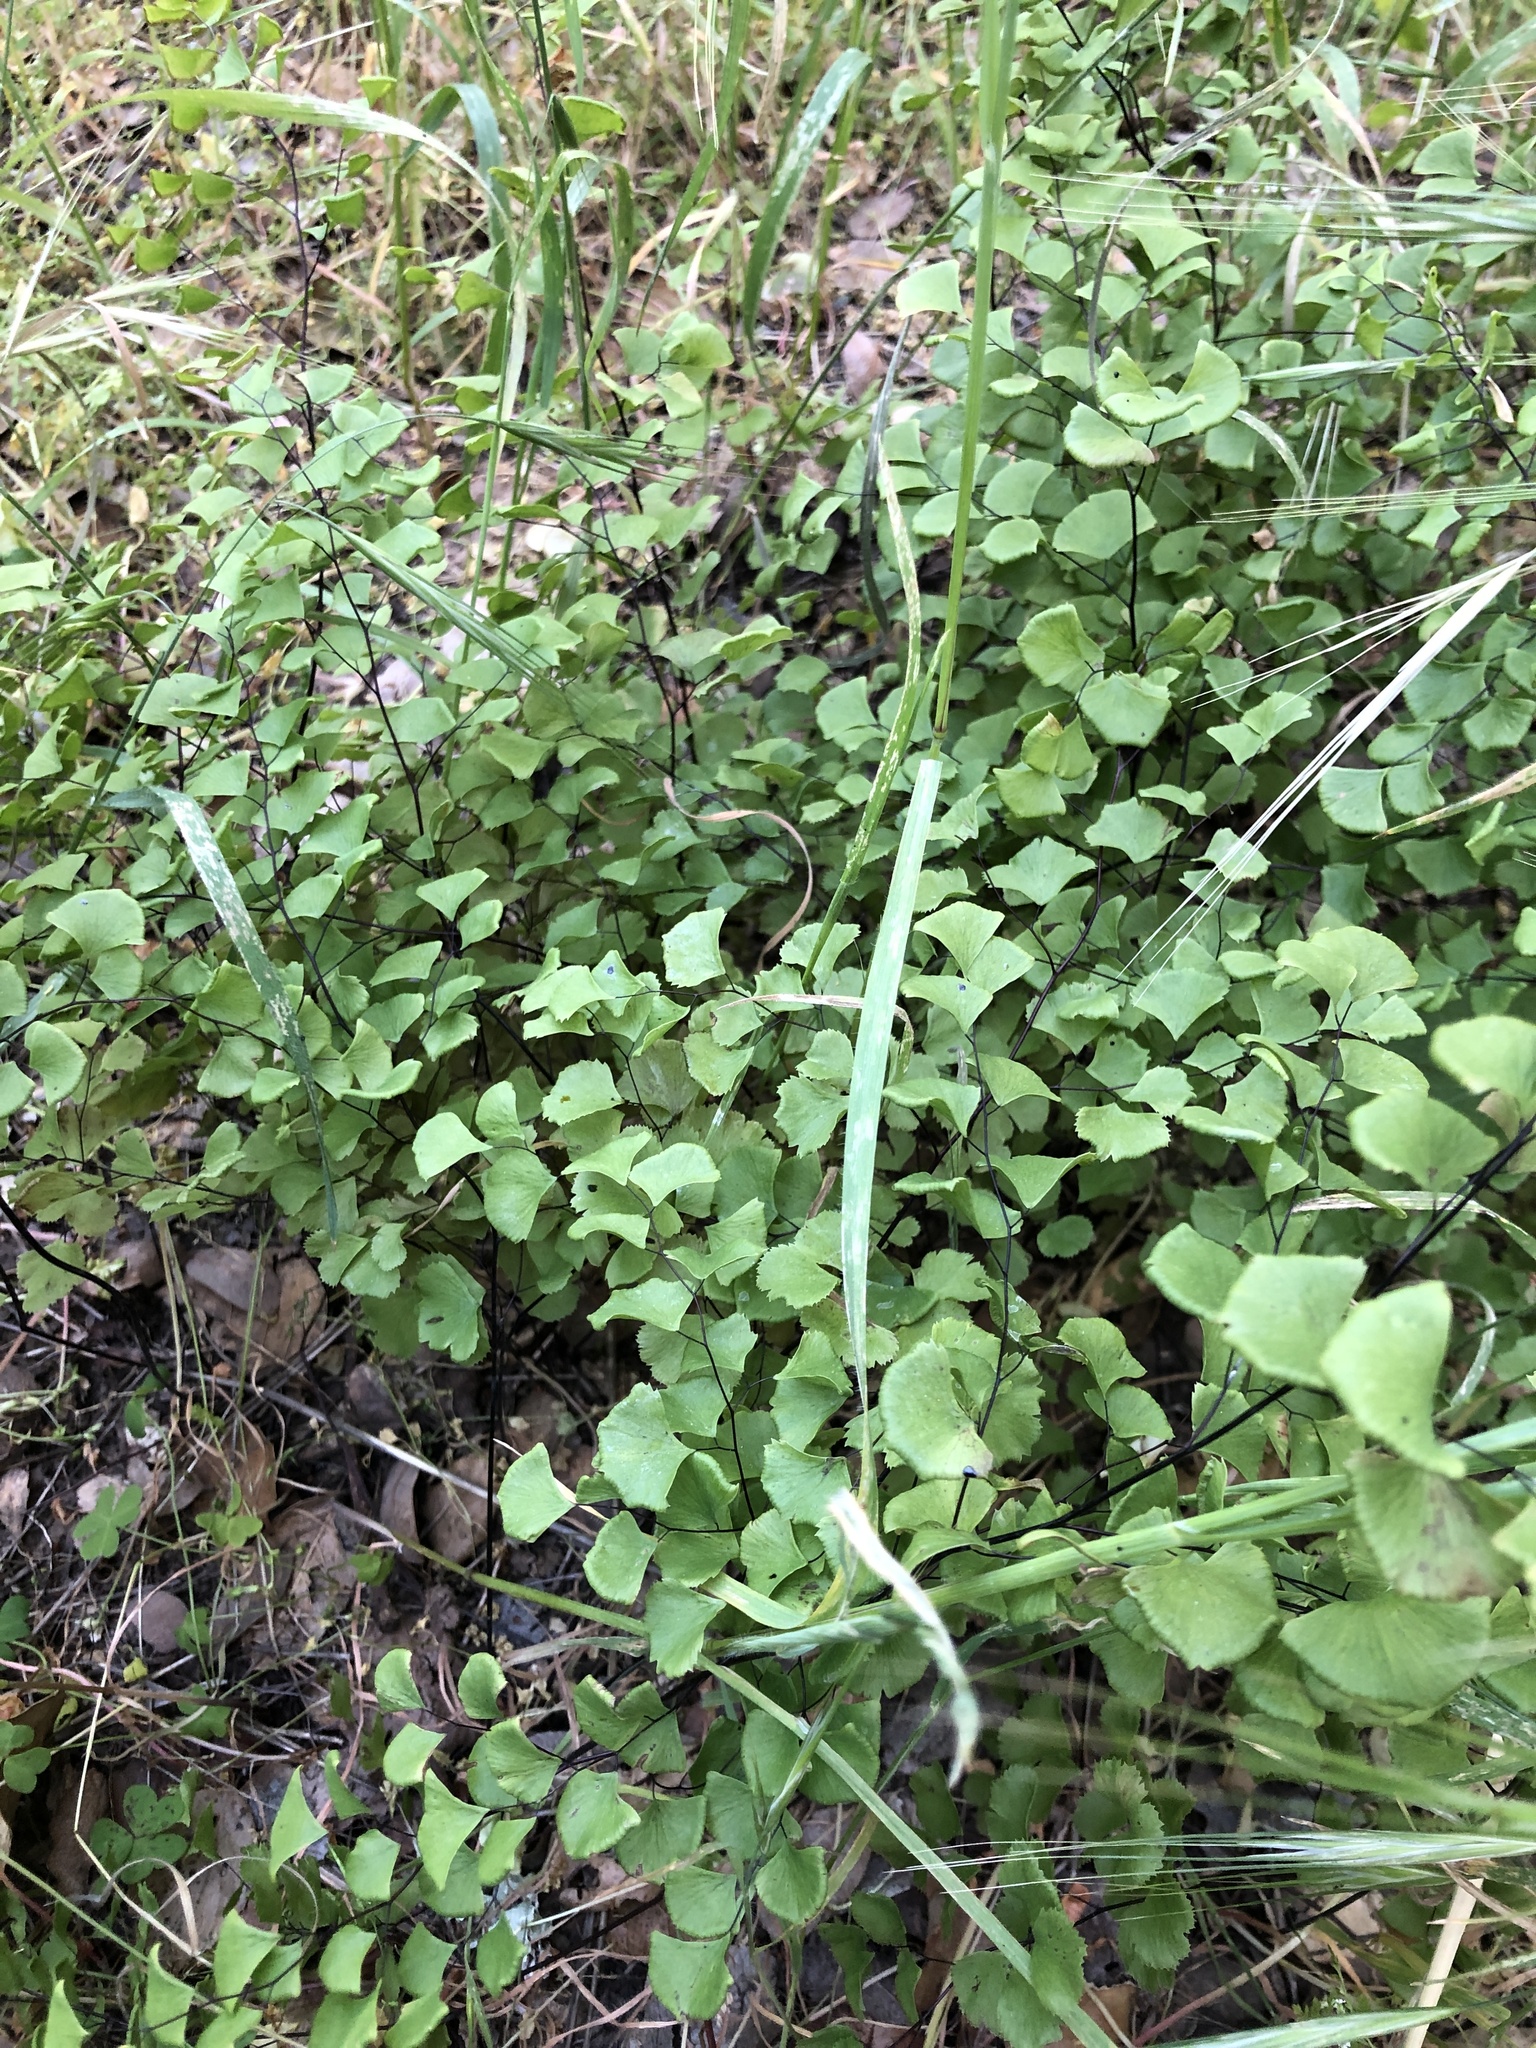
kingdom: Plantae
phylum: Tracheophyta
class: Polypodiopsida
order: Polypodiales
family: Pteridaceae
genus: Adiantum
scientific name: Adiantum jordanii
